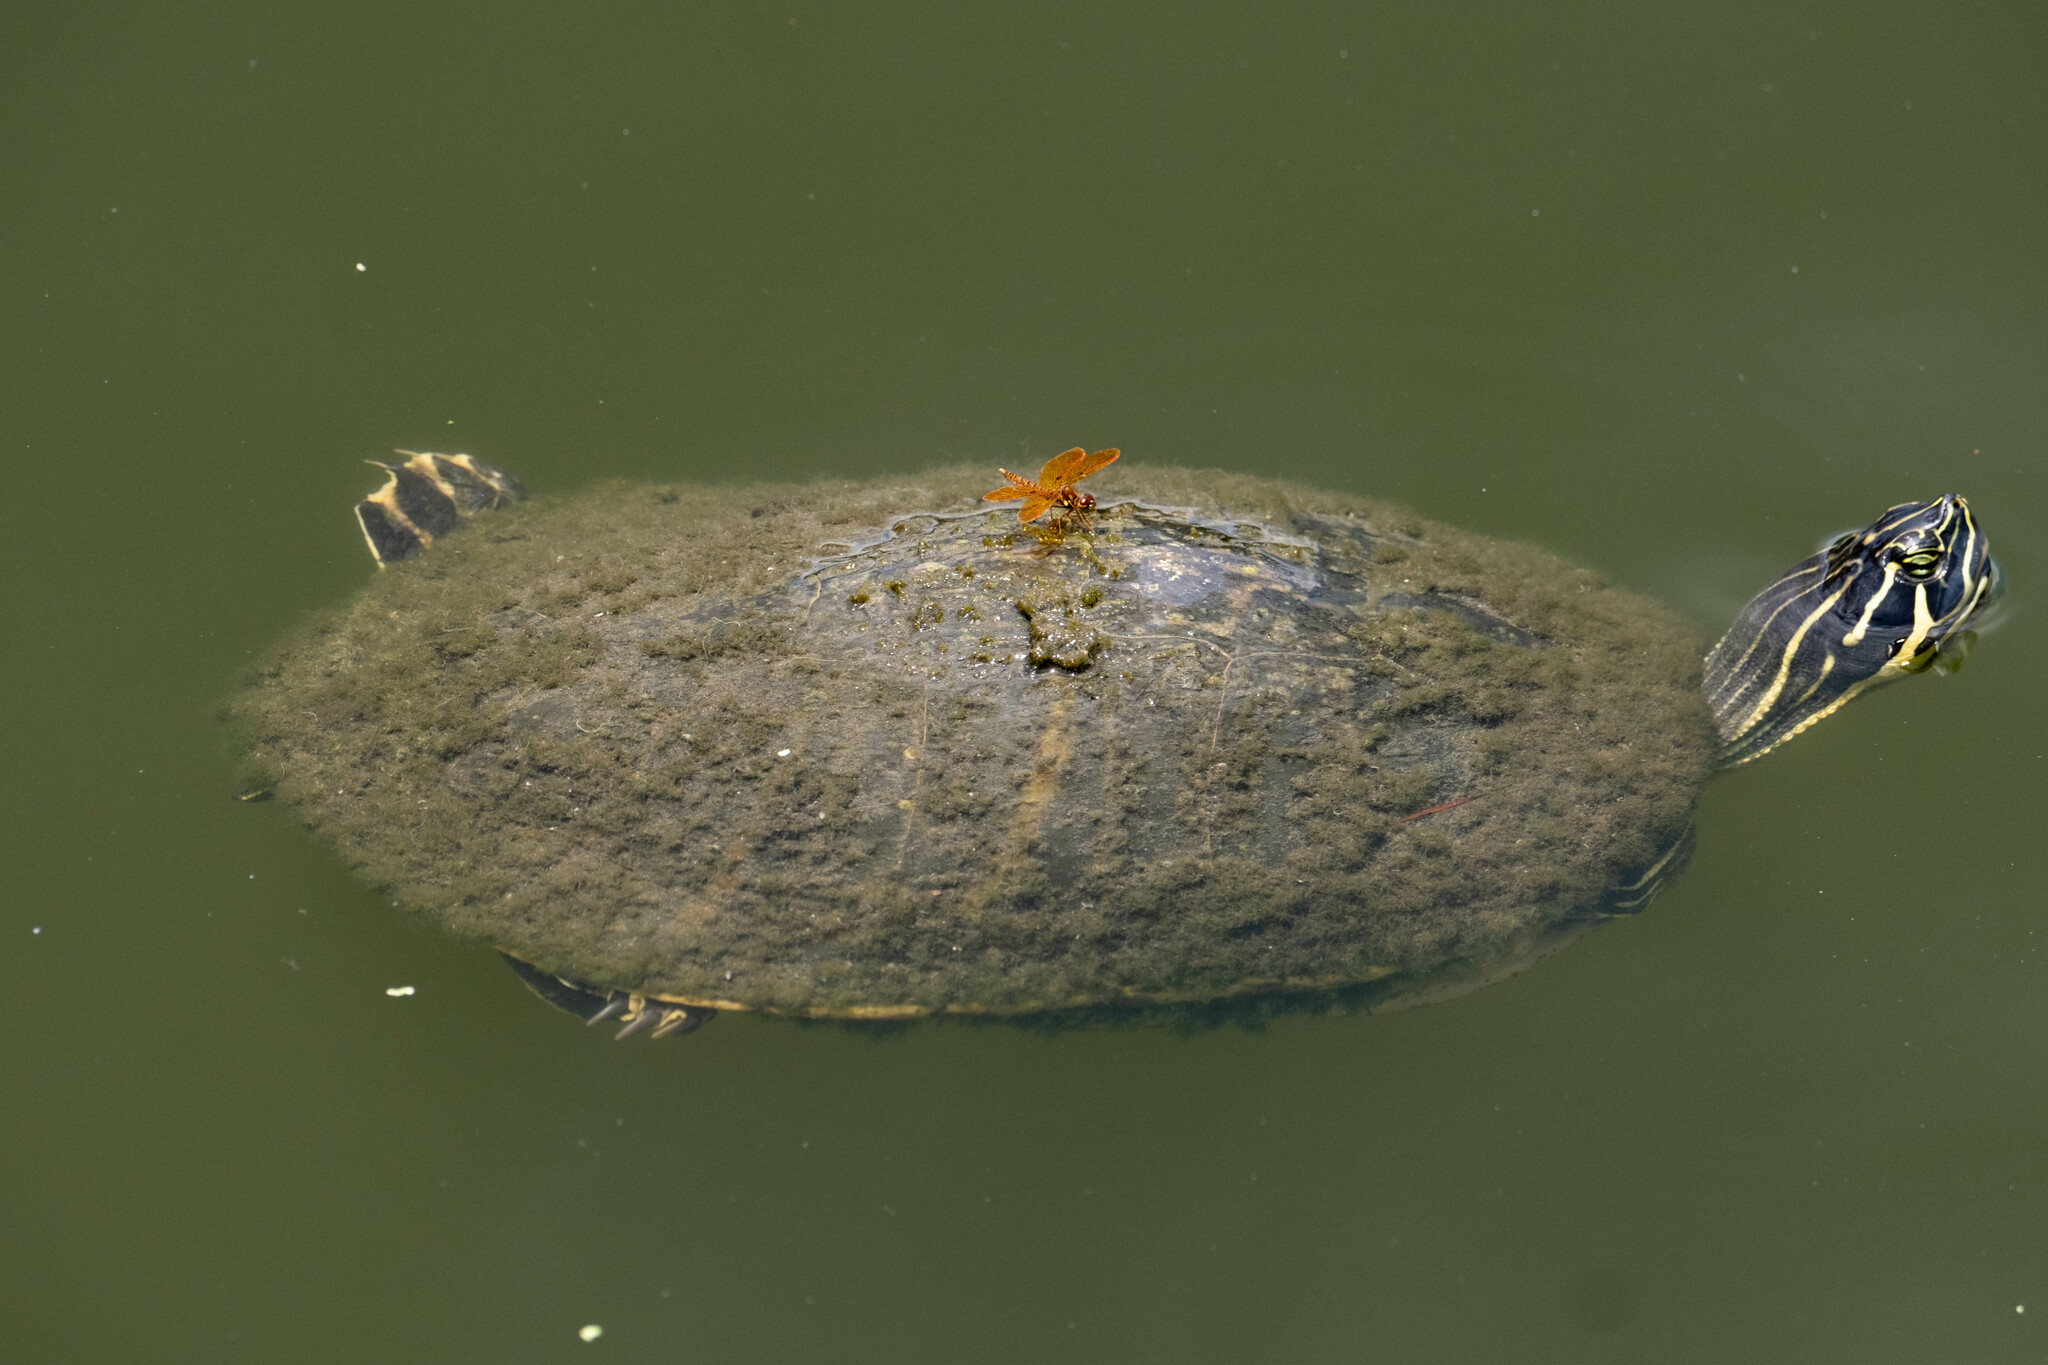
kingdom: Animalia
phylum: Arthropoda
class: Insecta
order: Odonata
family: Libellulidae
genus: Perithemis
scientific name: Perithemis tenera
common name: Eastern amberwing
